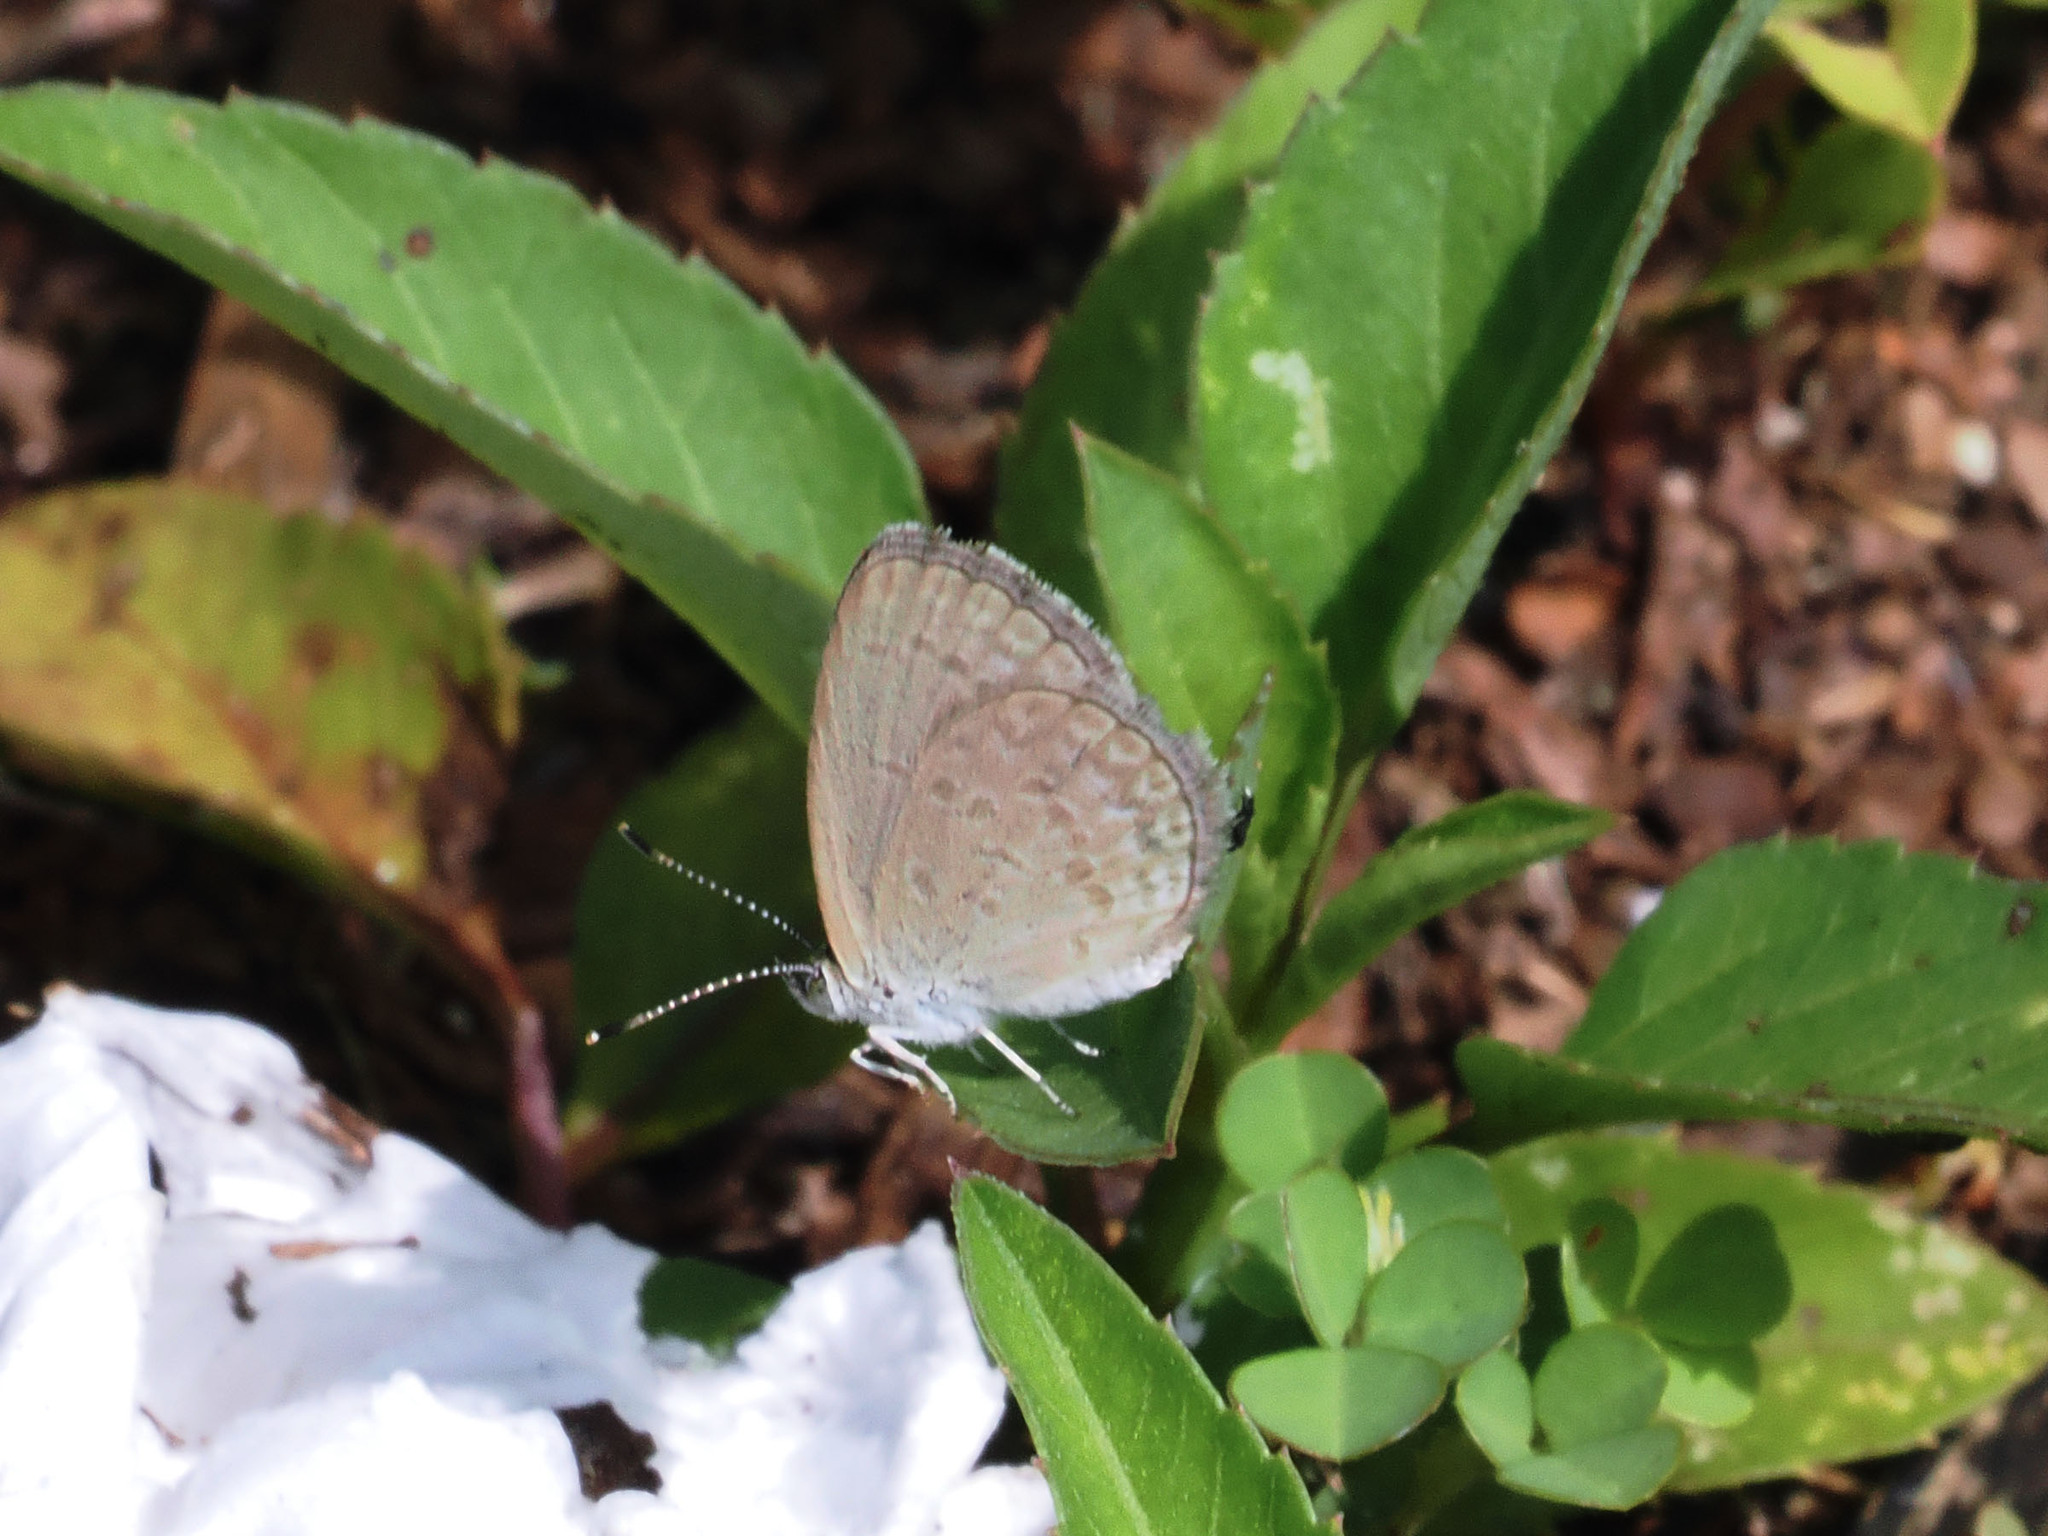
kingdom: Animalia
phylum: Arthropoda
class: Insecta
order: Lepidoptera
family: Lycaenidae
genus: Zizina
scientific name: Zizina otis
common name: Lesser grass blue
